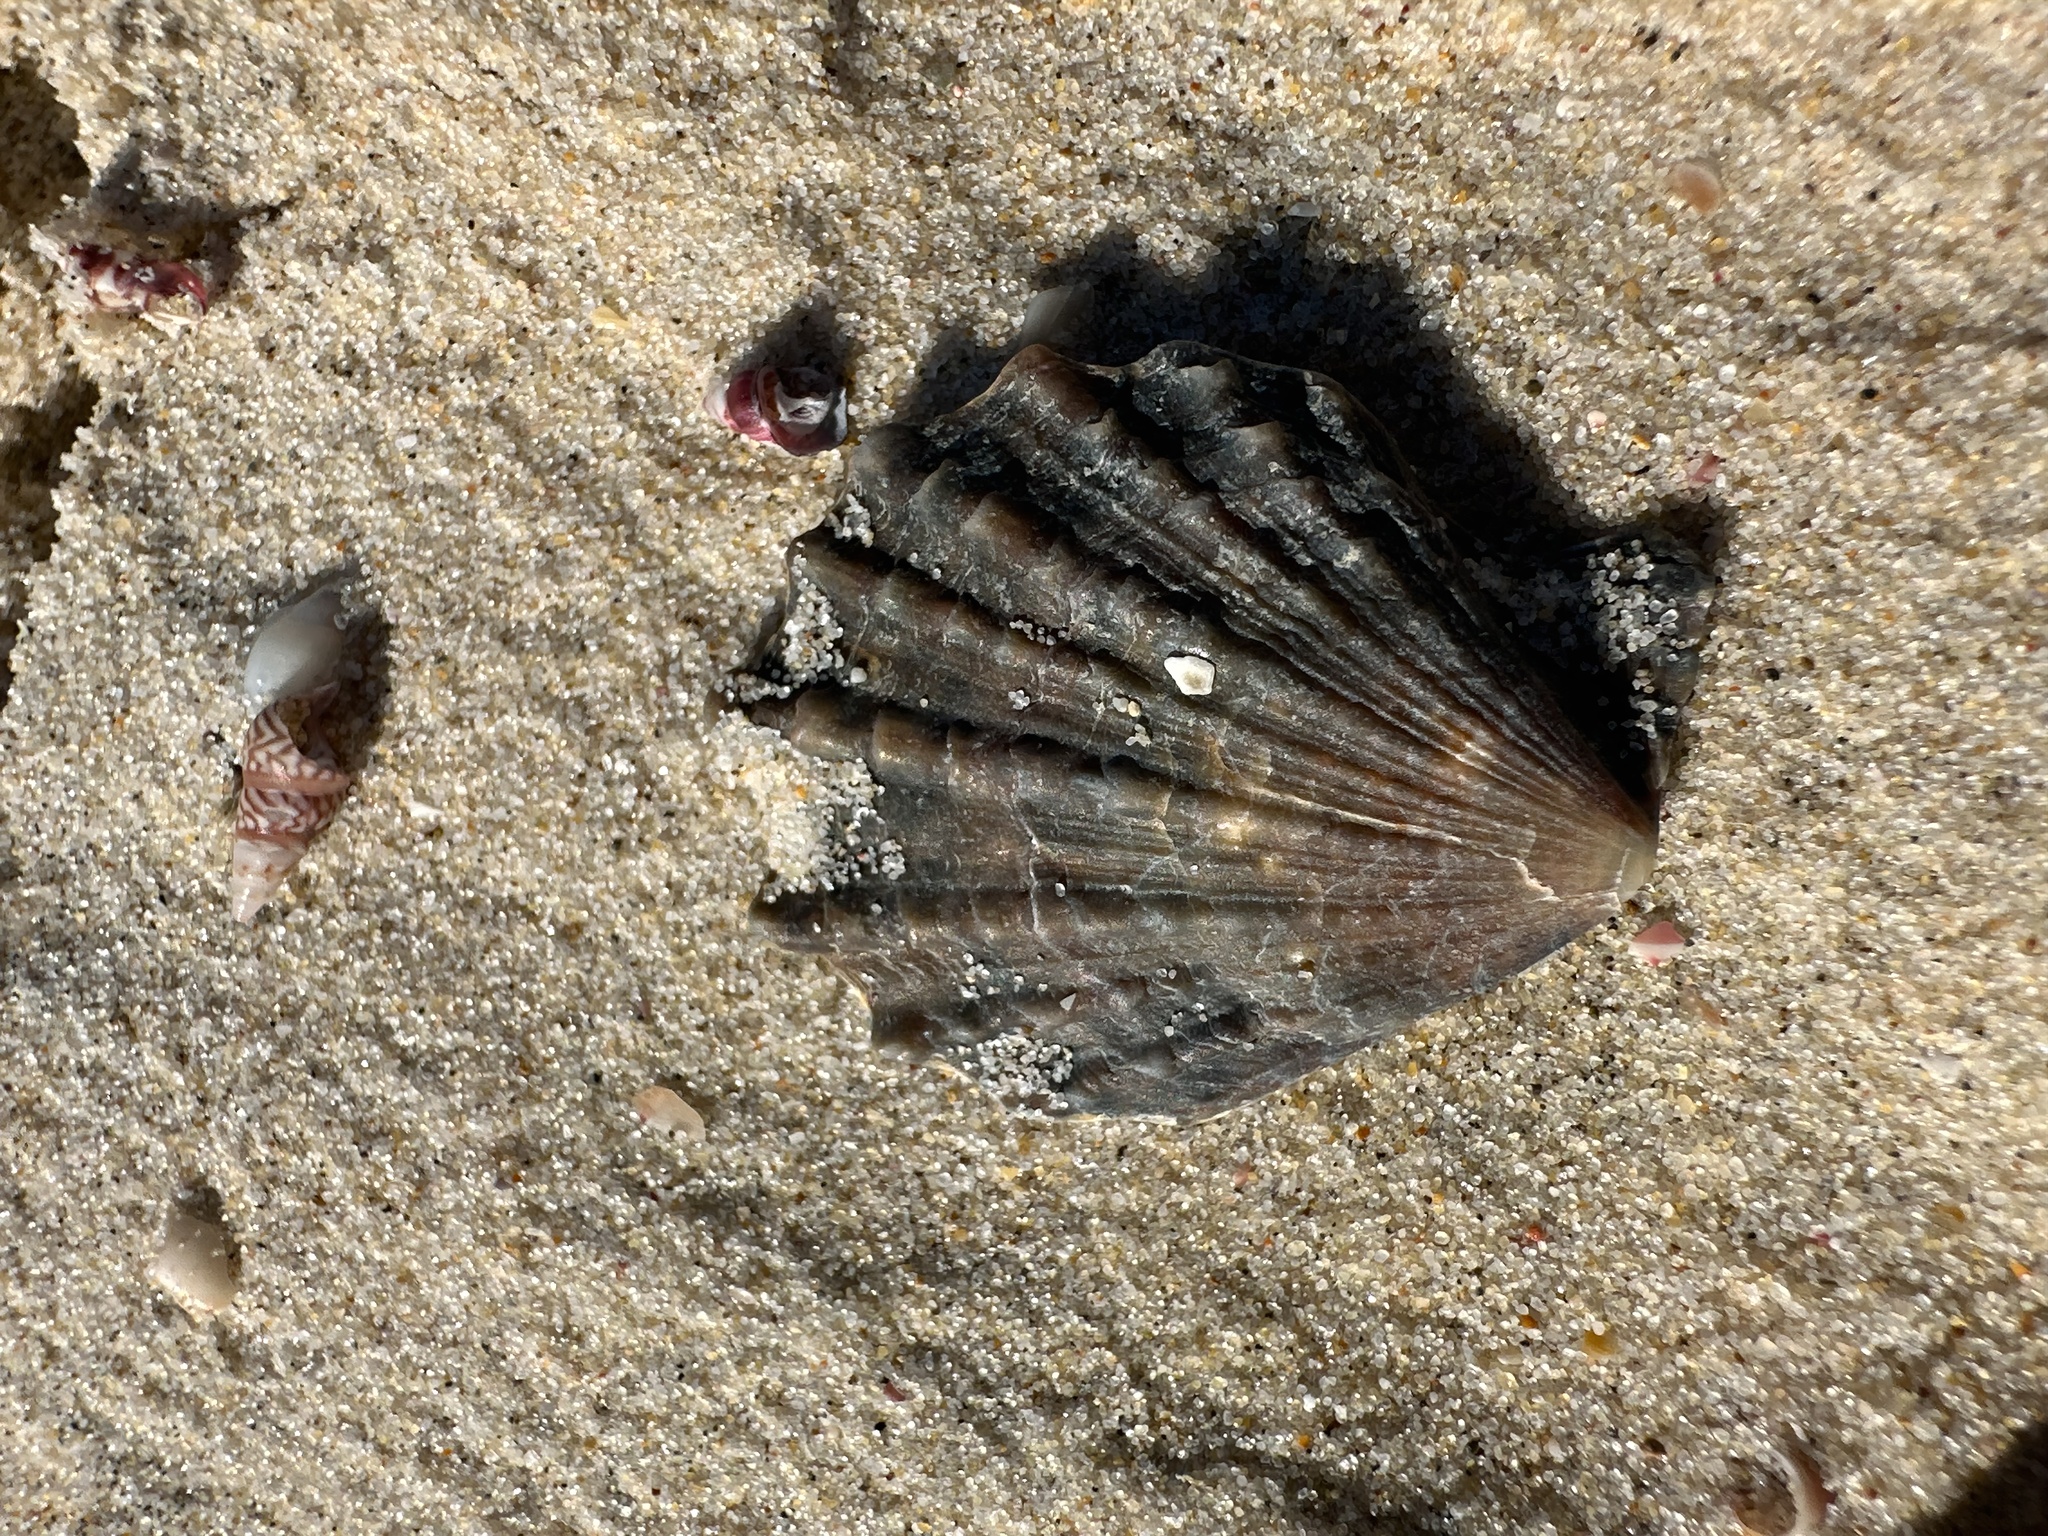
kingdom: Animalia
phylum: Mollusca
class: Bivalvia
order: Pectinida
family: Pectinidae
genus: Scaeochlamys
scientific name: Scaeochlamys livida
